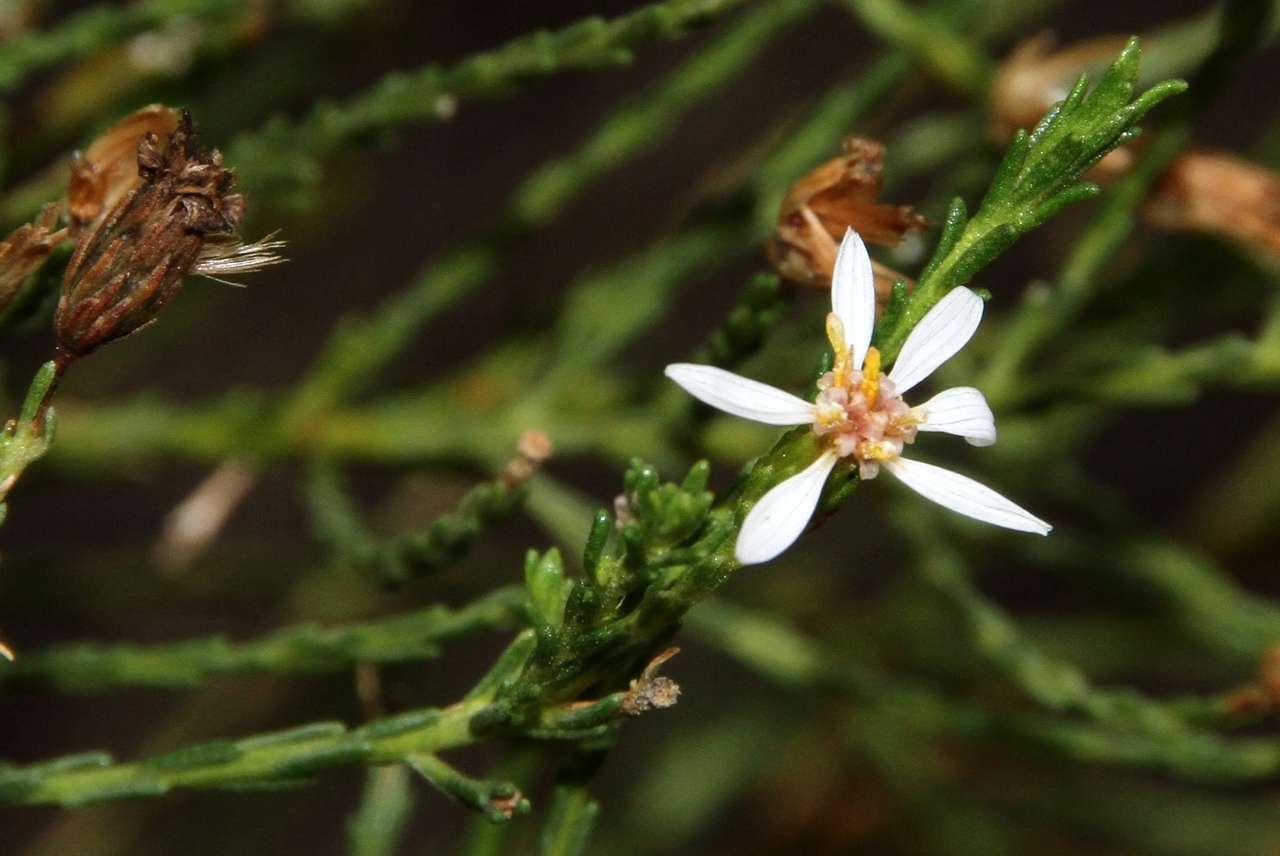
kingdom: Plantae
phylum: Tracheophyta
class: Magnoliopsida
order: Asterales
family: Asteraceae
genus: Olearia
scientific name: Olearia passerinoides
